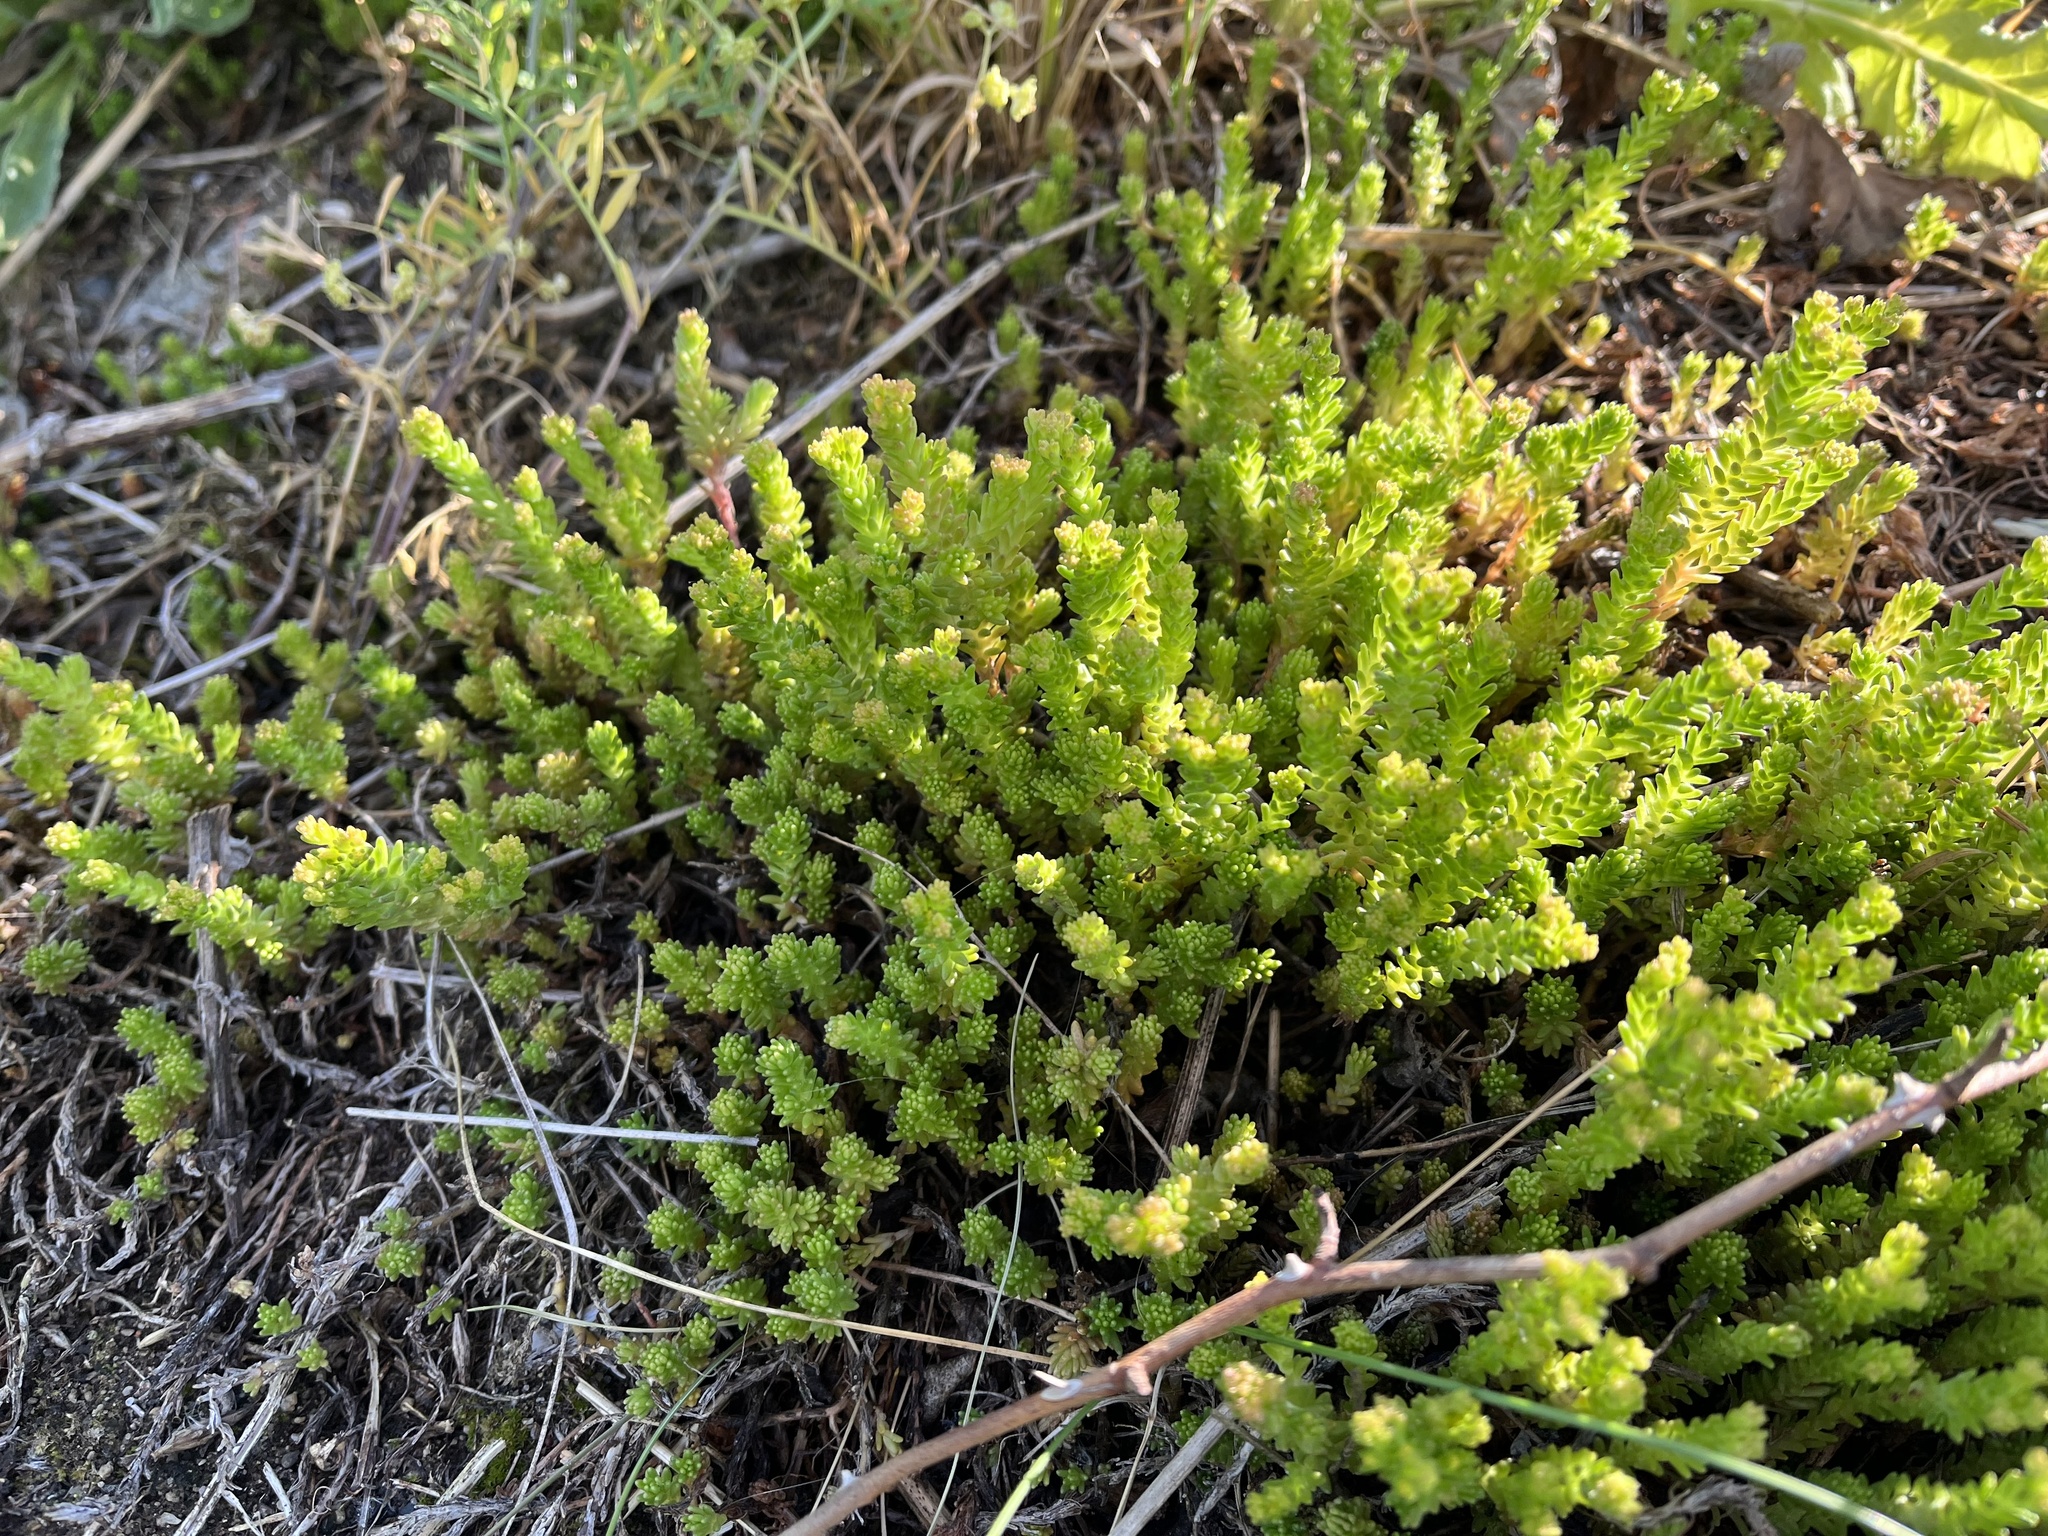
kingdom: Plantae
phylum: Tracheophyta
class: Magnoliopsida
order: Saxifragales
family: Crassulaceae
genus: Sedum
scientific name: Sedum sexangulare
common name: Tasteless stonecrop
